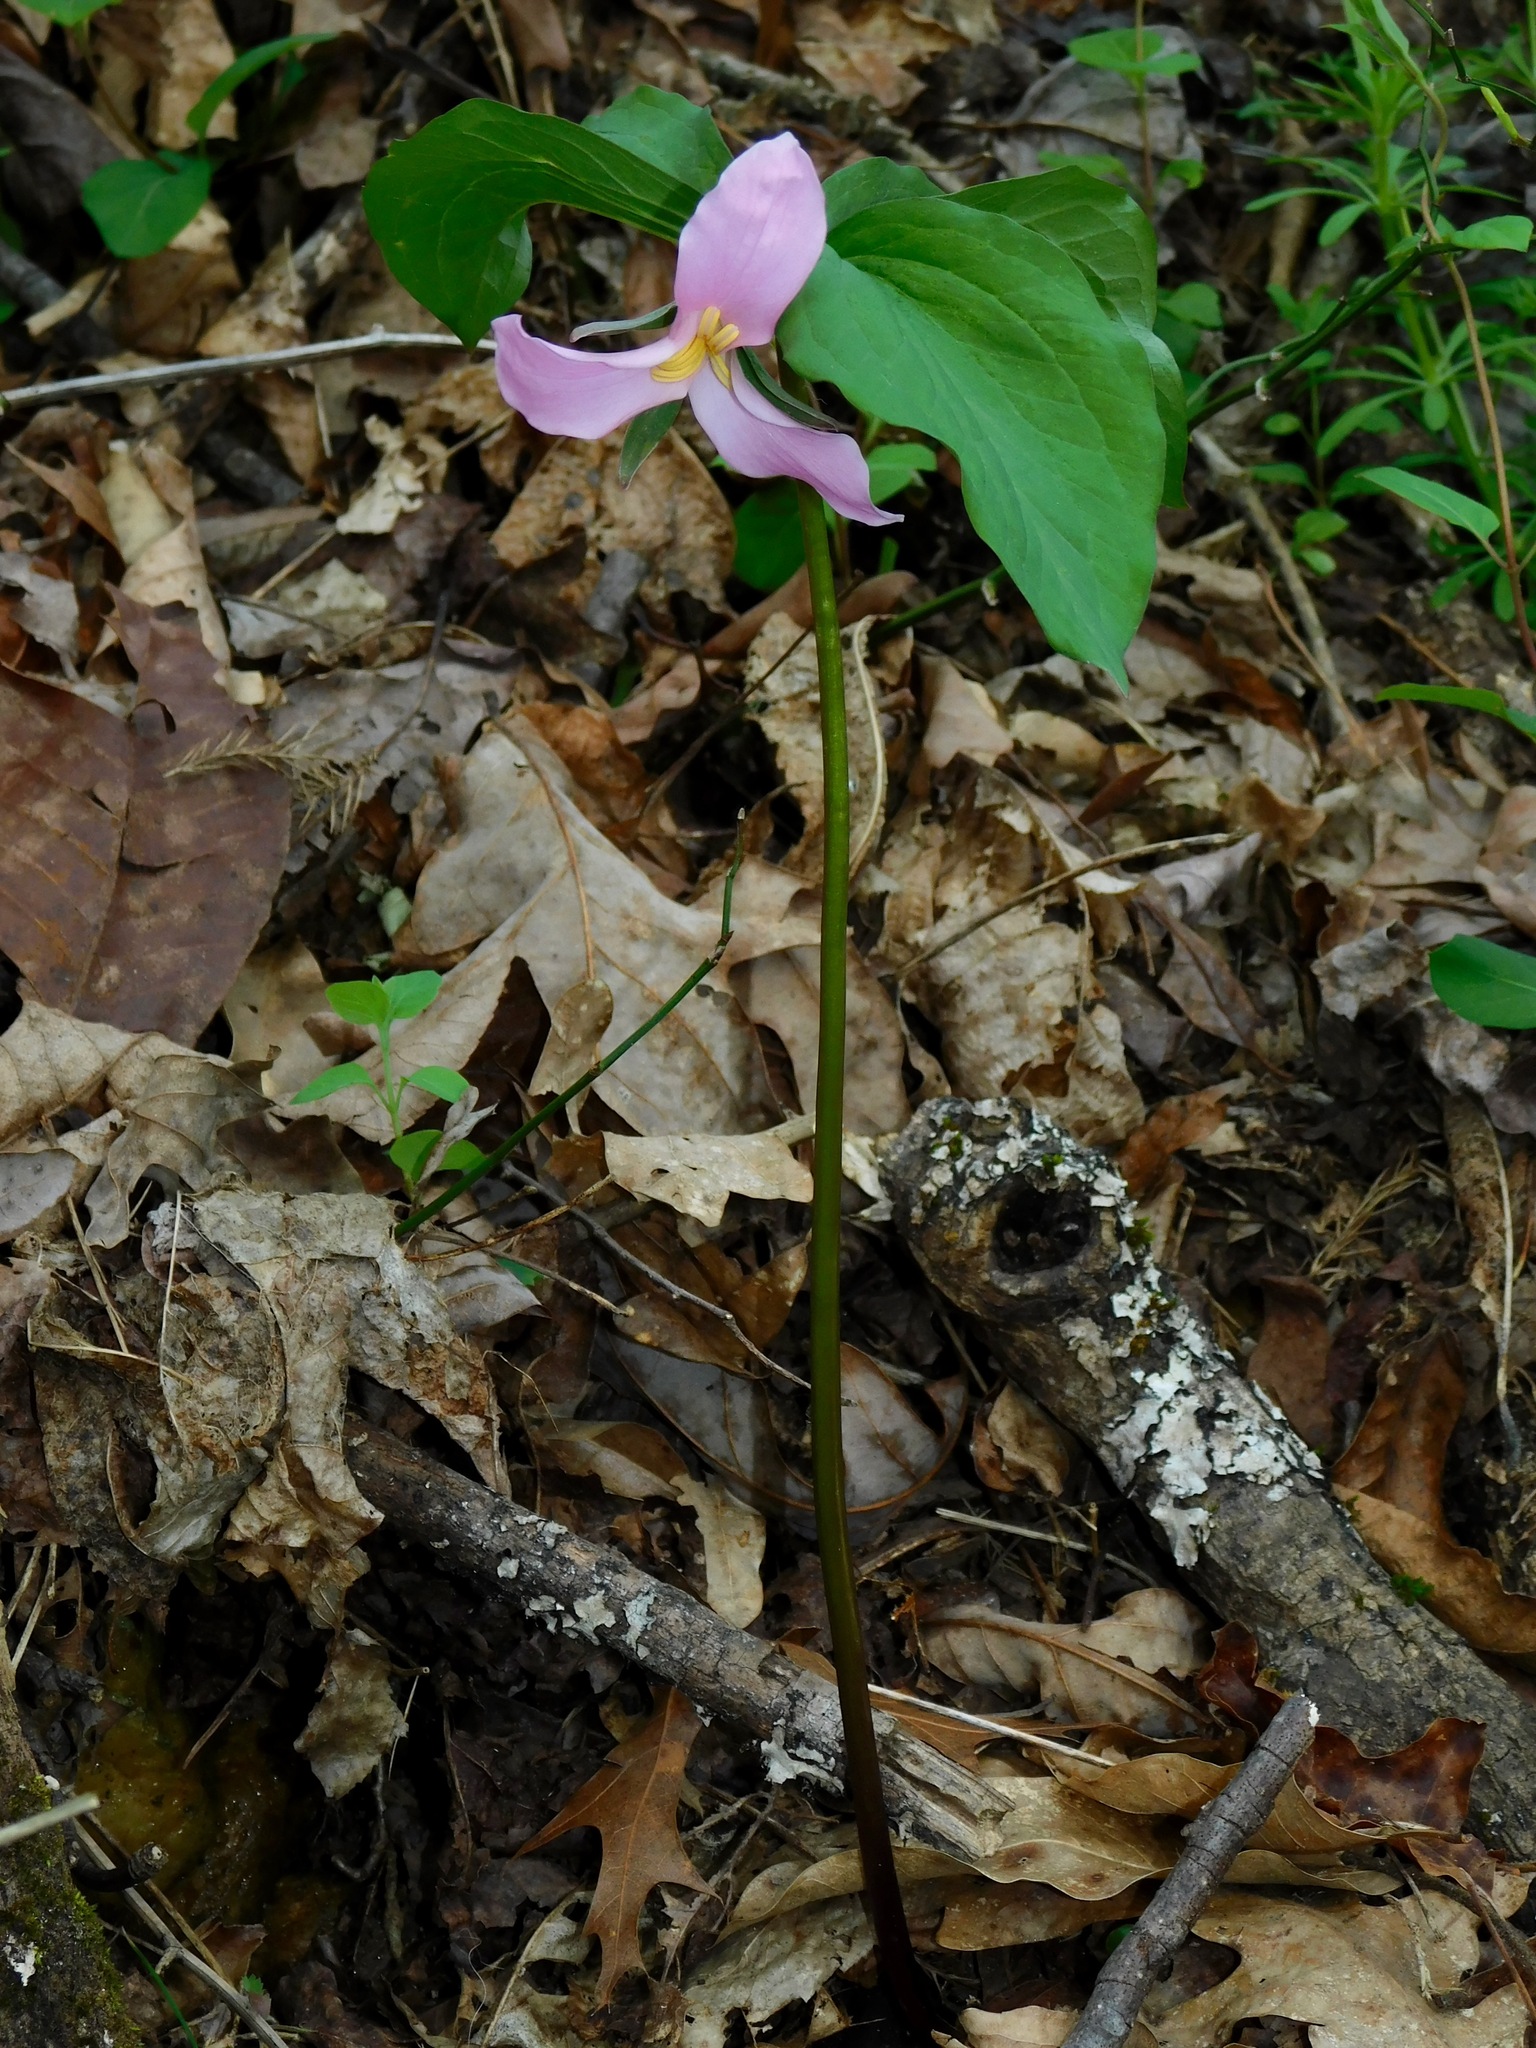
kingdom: Plantae
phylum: Tracheophyta
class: Liliopsida
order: Liliales
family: Melanthiaceae
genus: Trillium
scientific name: Trillium catesbaei
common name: Bashful trillium
